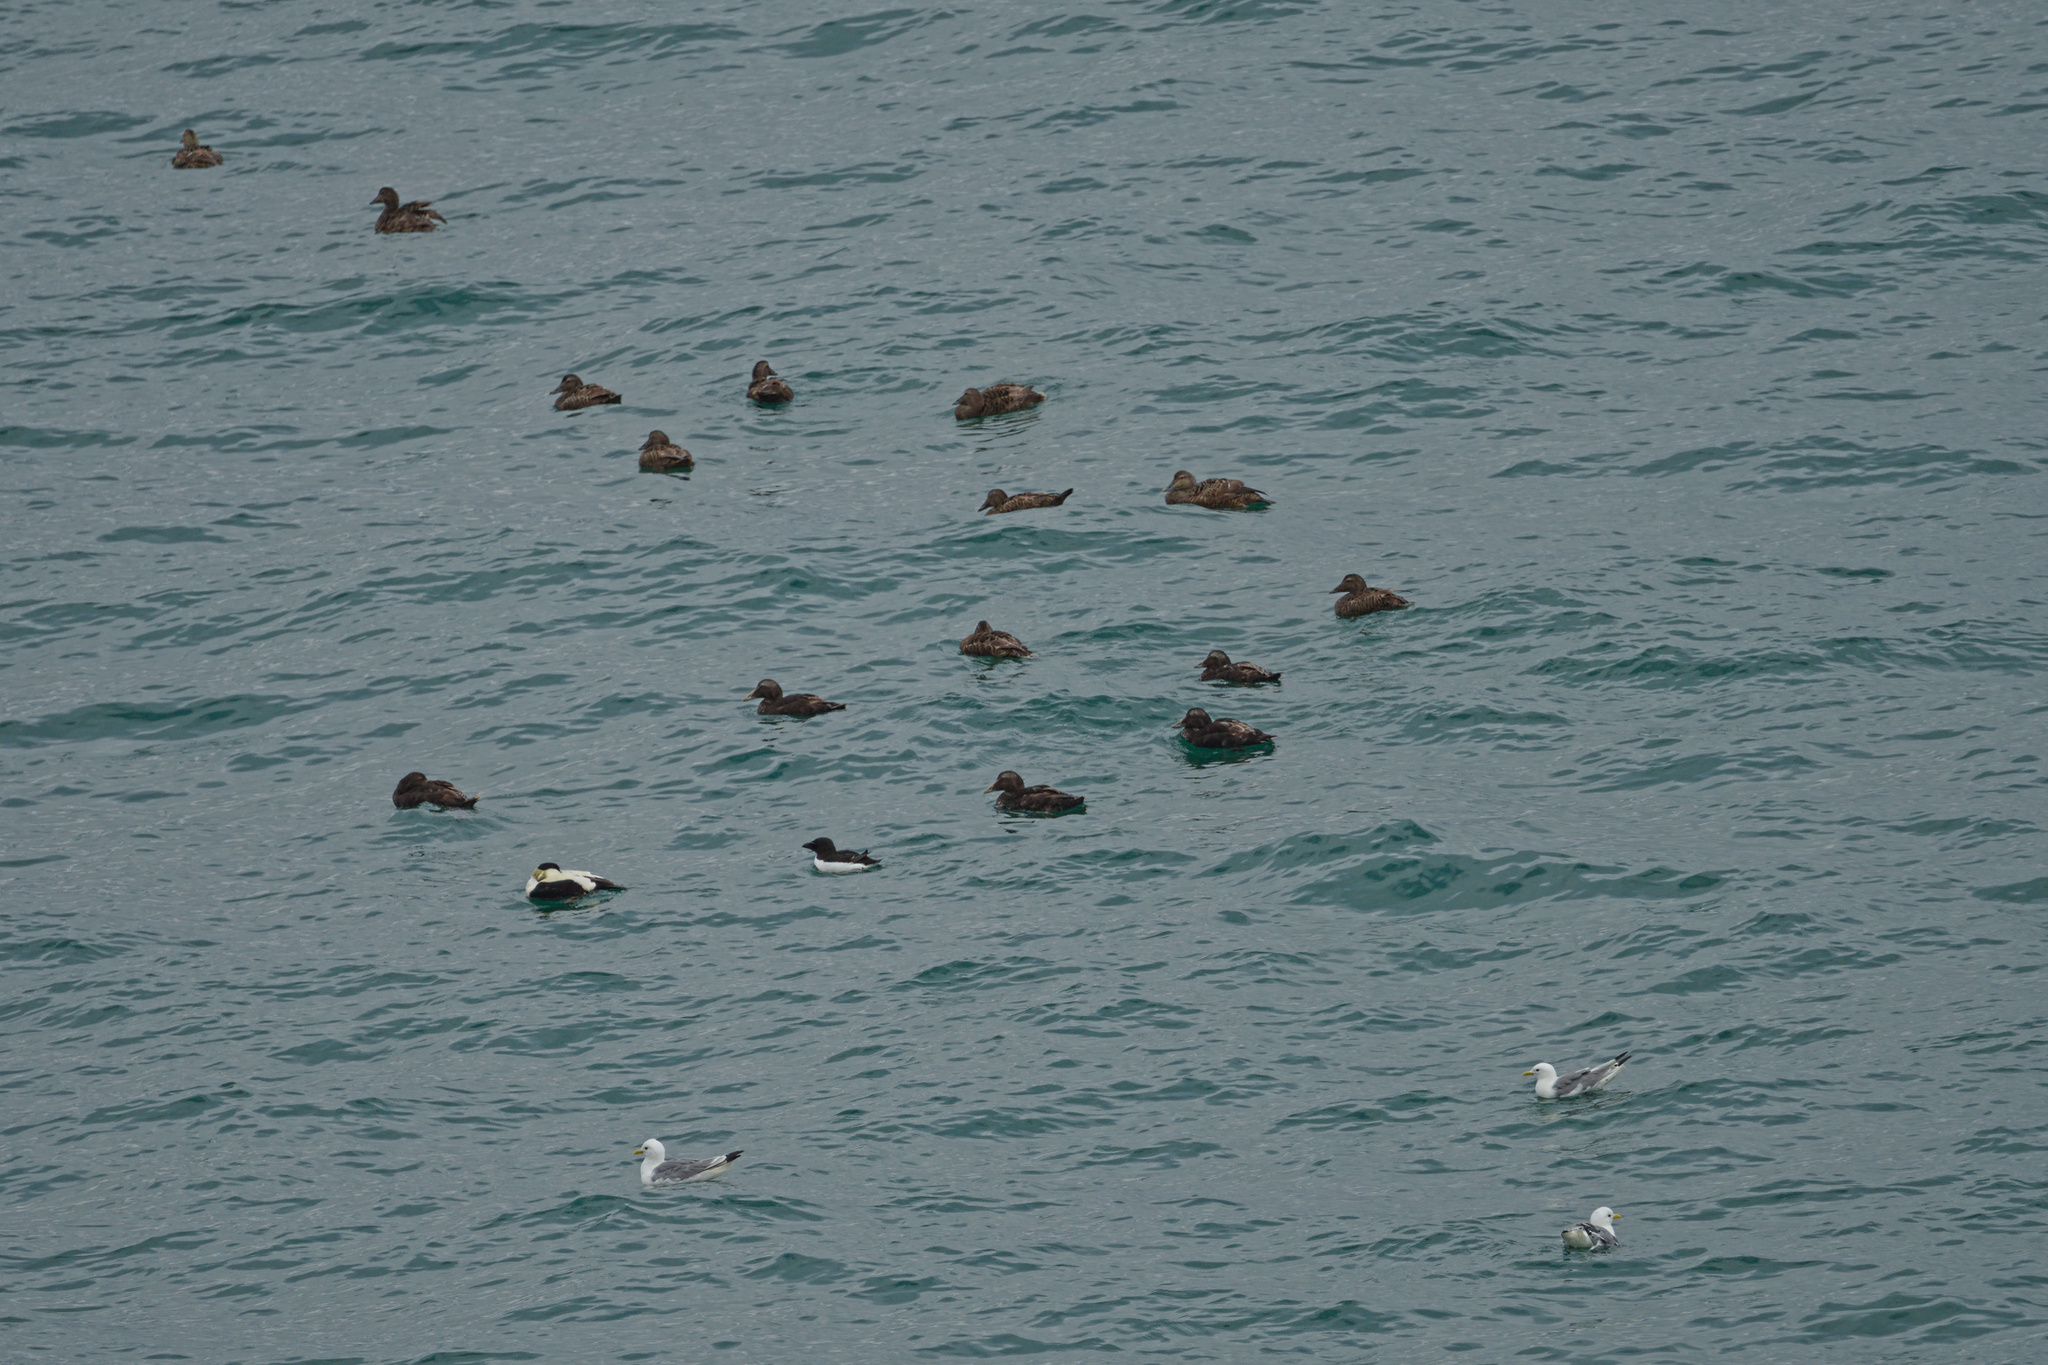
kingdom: Animalia
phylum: Chordata
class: Aves
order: Anseriformes
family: Anatidae
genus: Somateria
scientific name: Somateria mollissima
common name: Common eider
